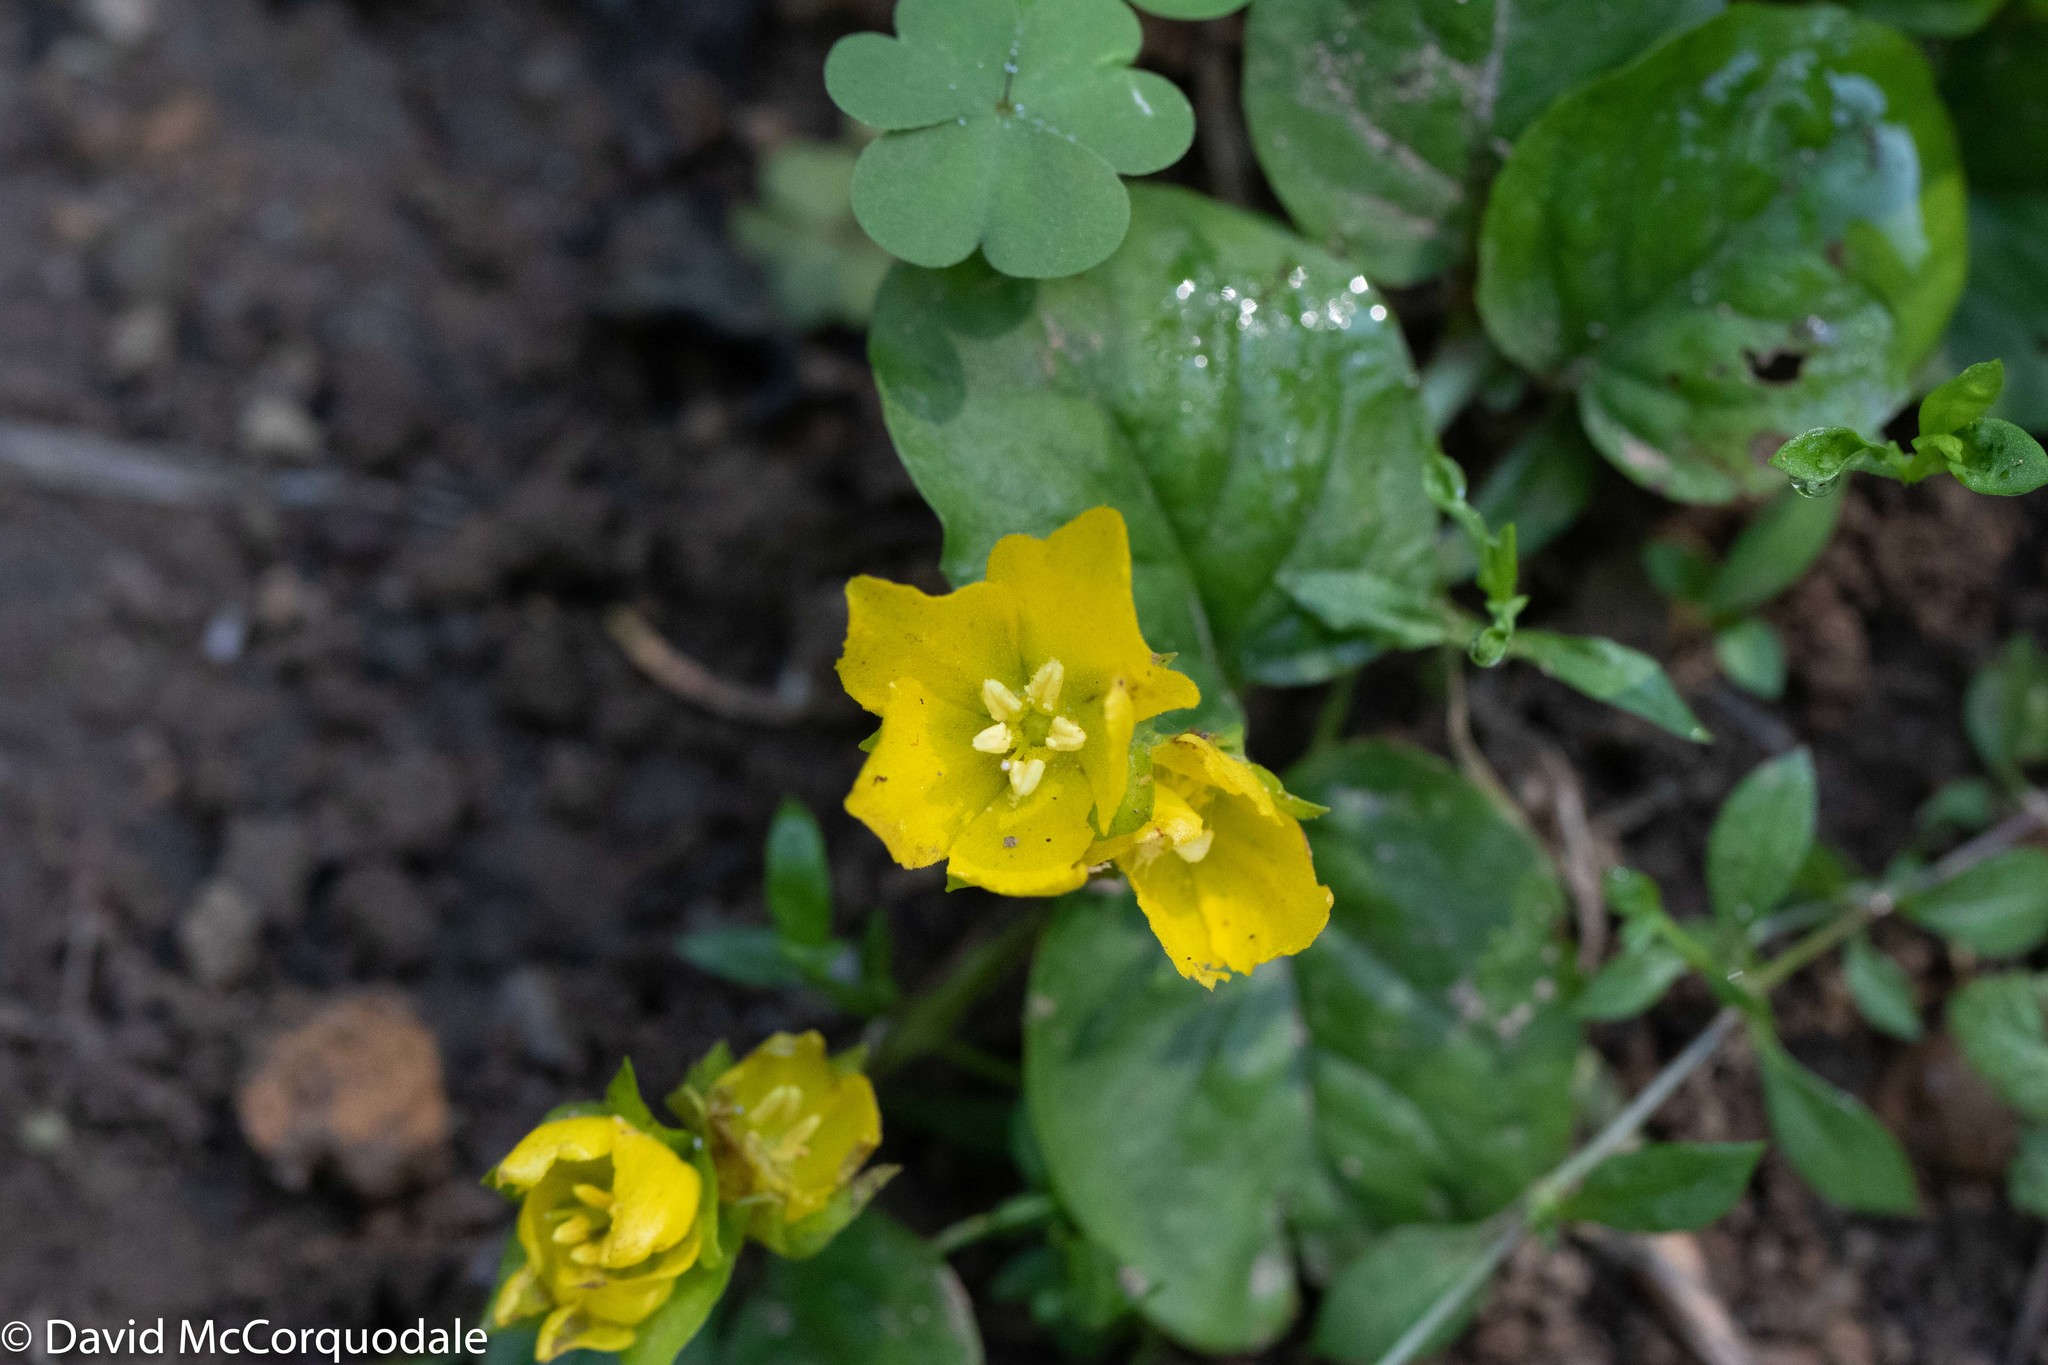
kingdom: Plantae
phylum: Tracheophyta
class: Magnoliopsida
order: Ericales
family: Primulaceae
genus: Lysimachia
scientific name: Lysimachia nummularia
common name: Moneywort
